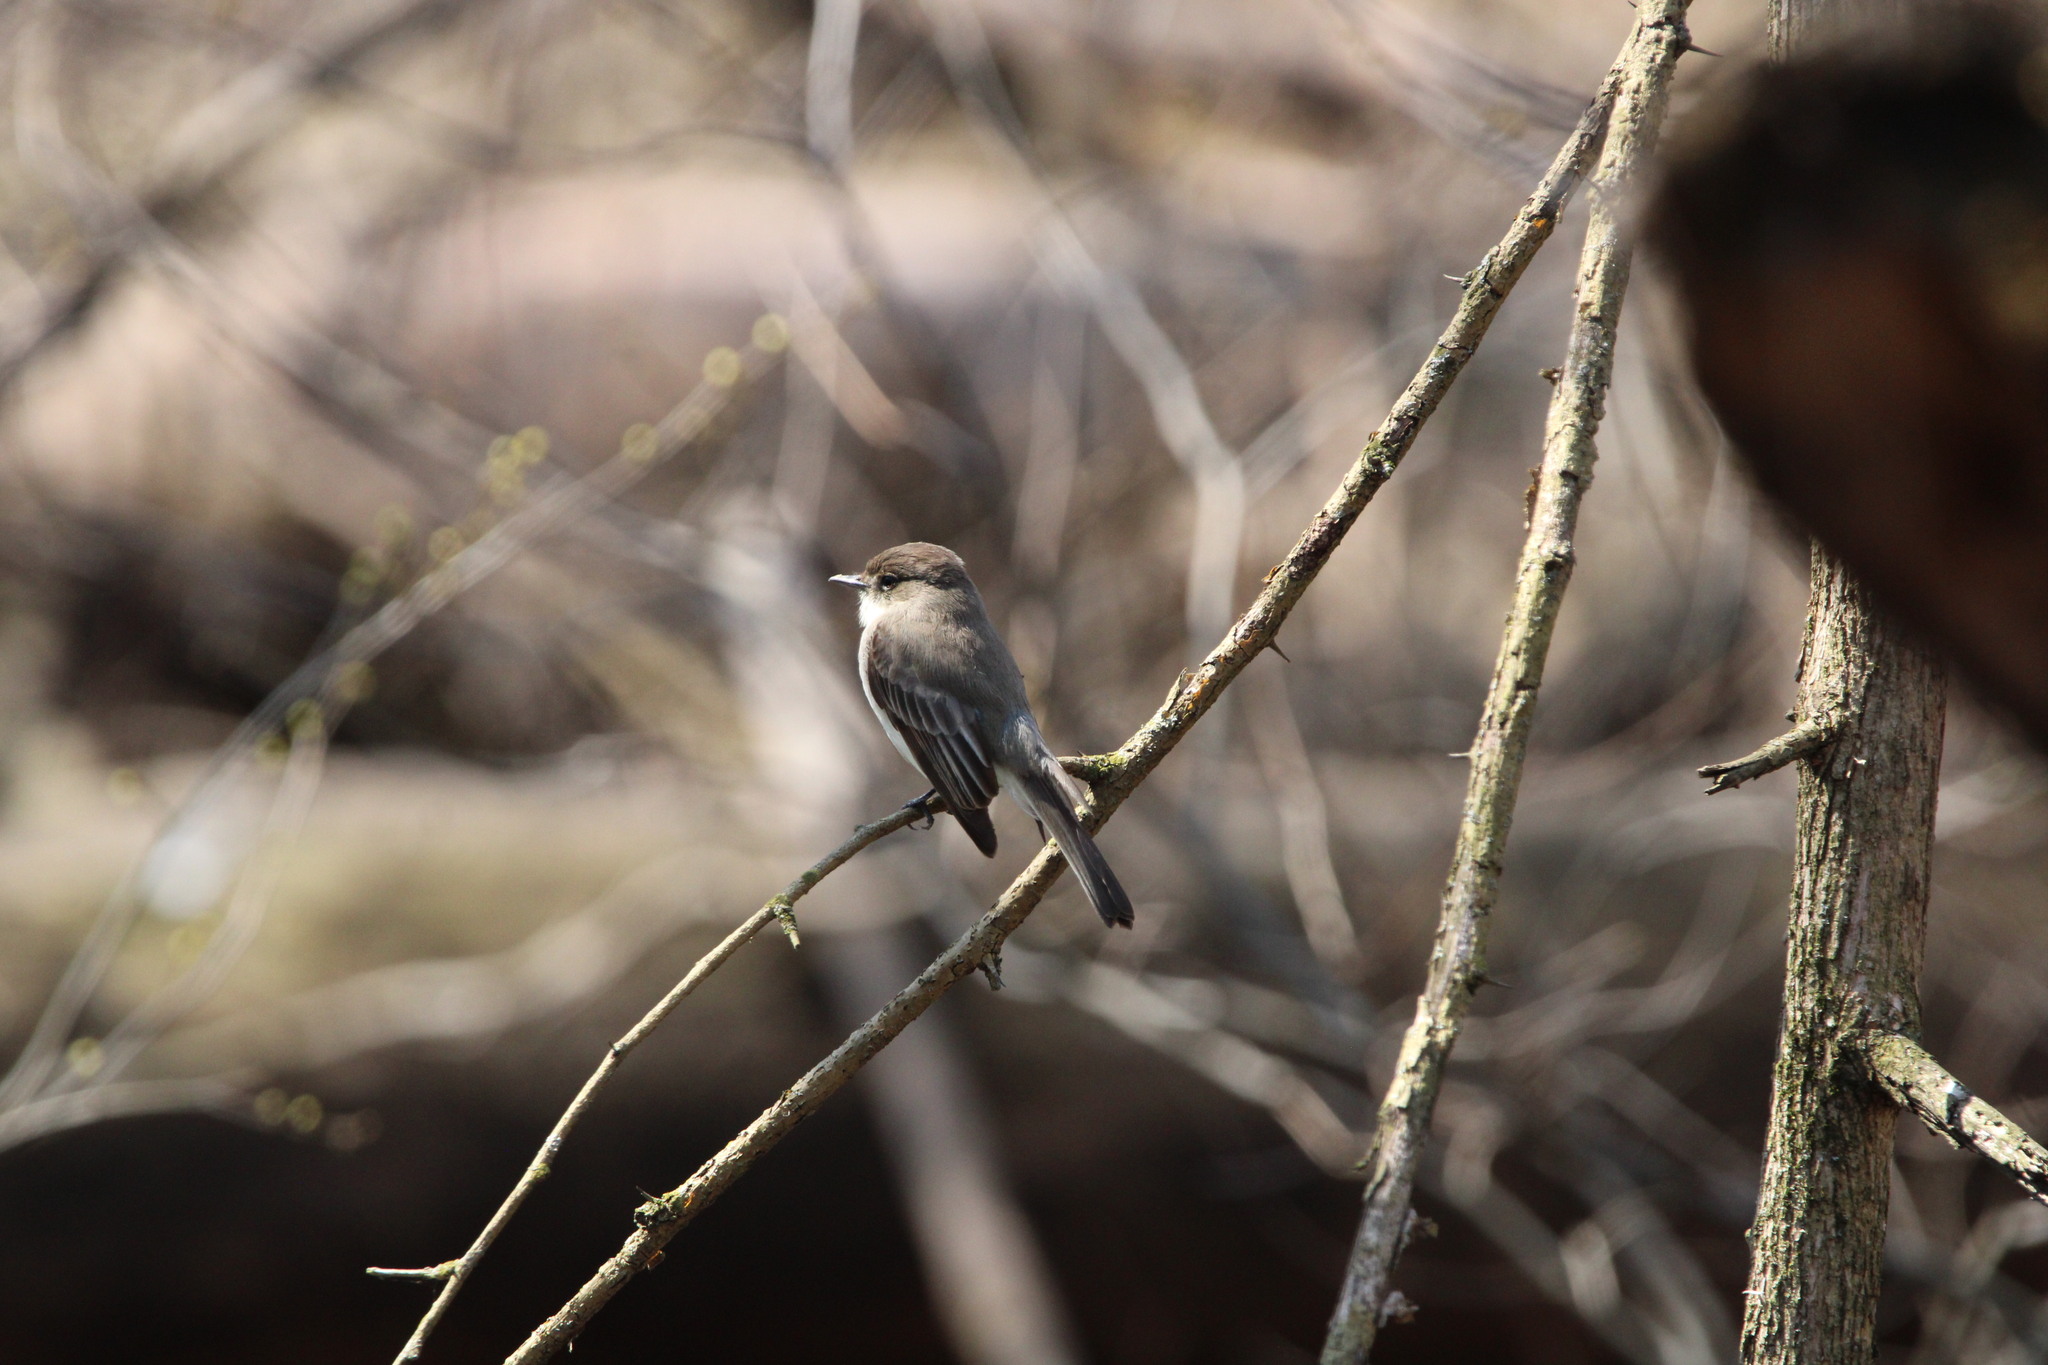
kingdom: Animalia
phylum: Chordata
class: Aves
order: Passeriformes
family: Tyrannidae
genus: Sayornis
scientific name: Sayornis phoebe
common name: Eastern phoebe
